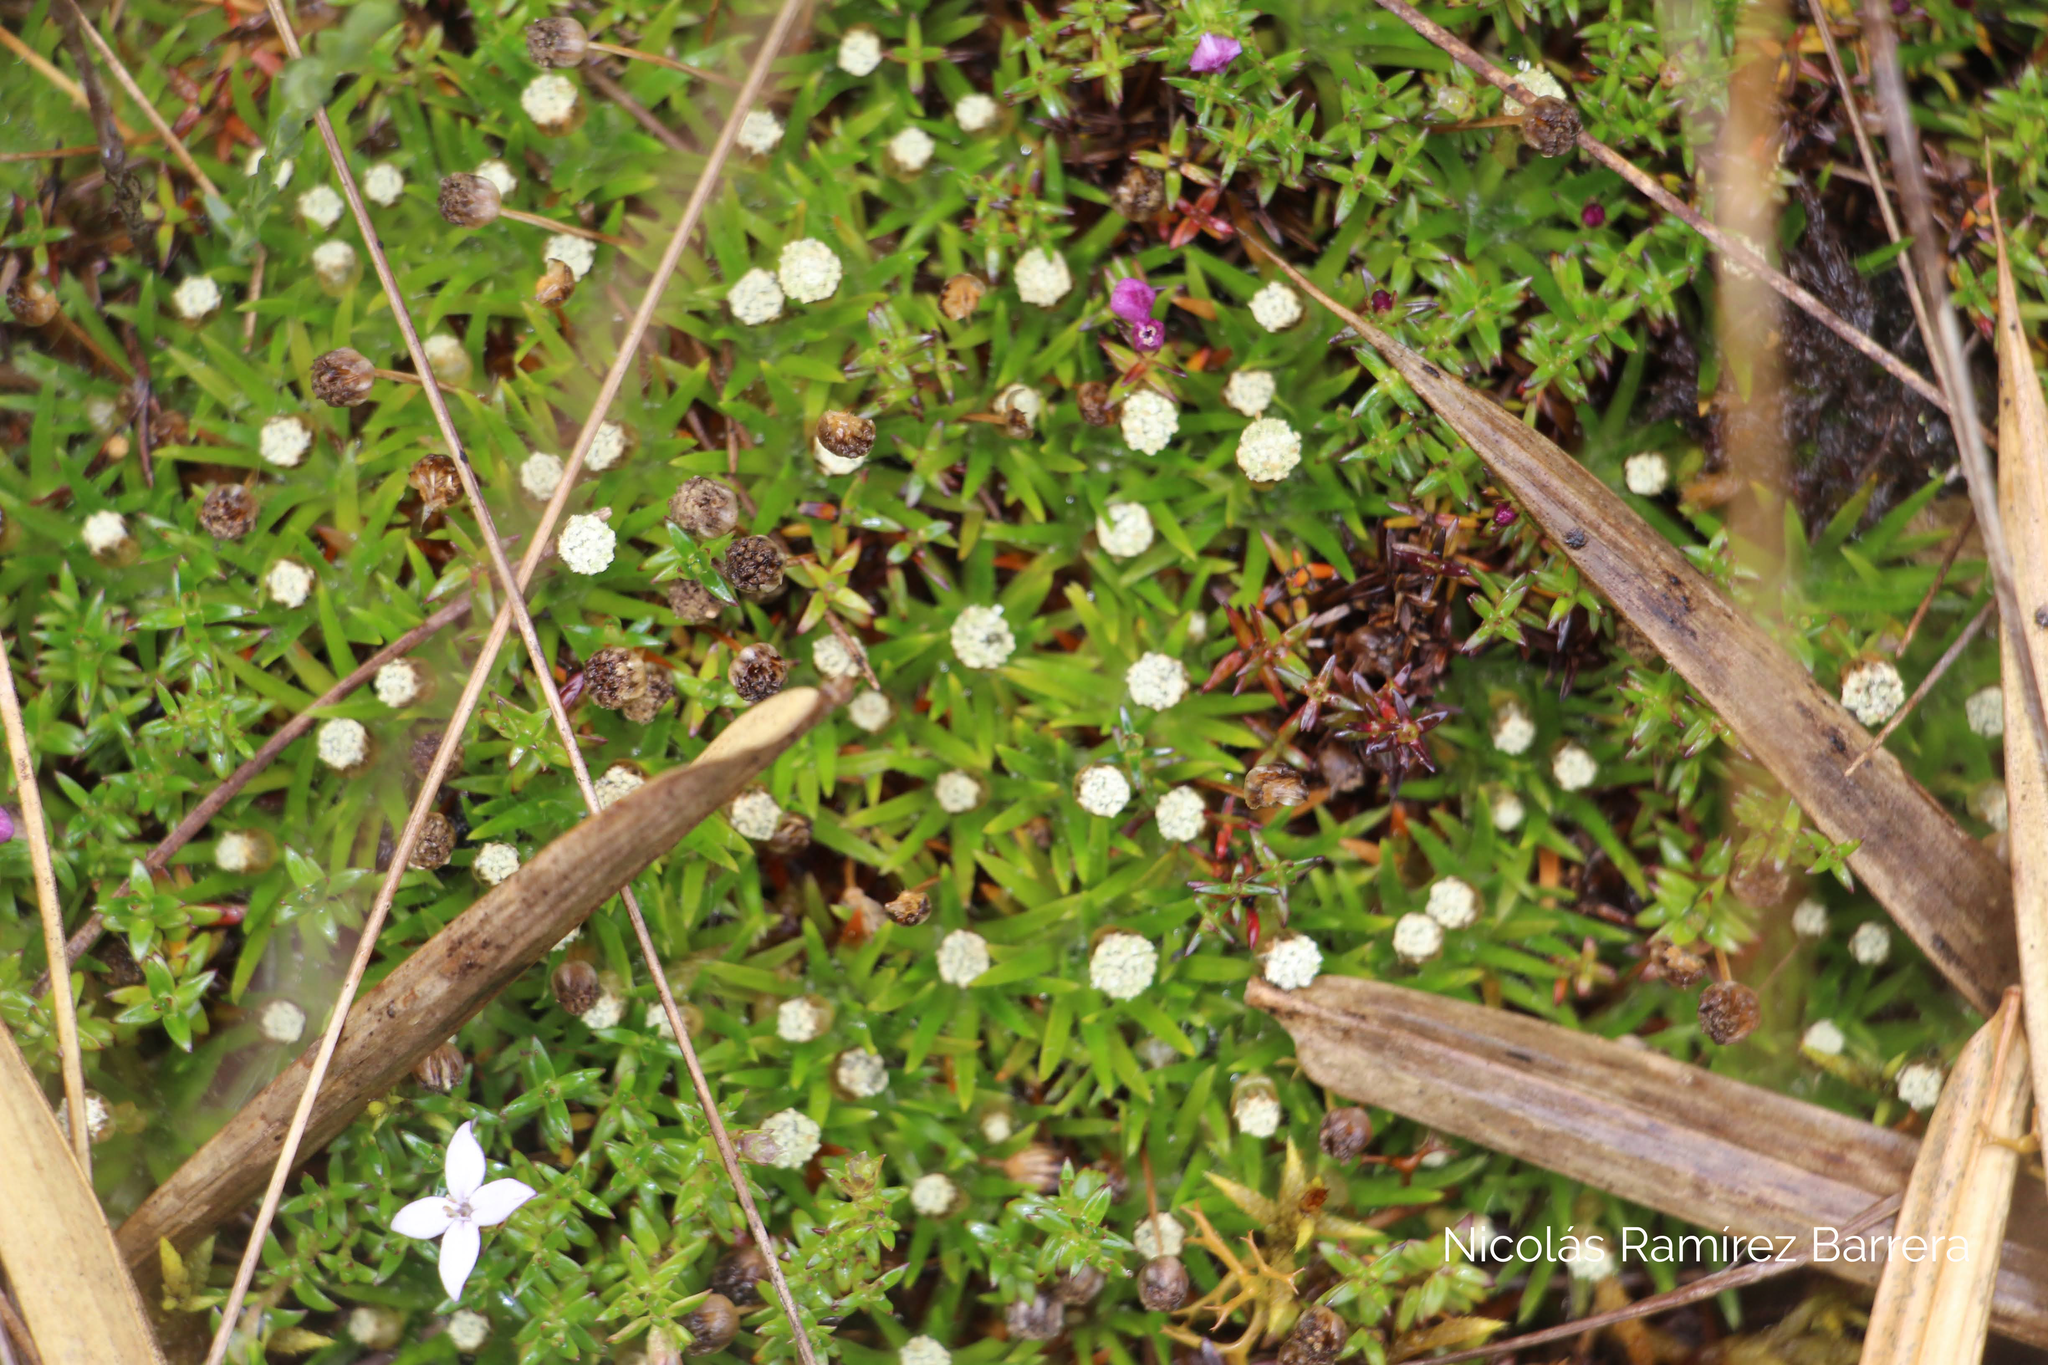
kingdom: Plantae
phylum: Tracheophyta
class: Liliopsida
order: Poales
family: Eriocaulaceae
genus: Paepalanthus
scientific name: Paepalanthus karstenii
